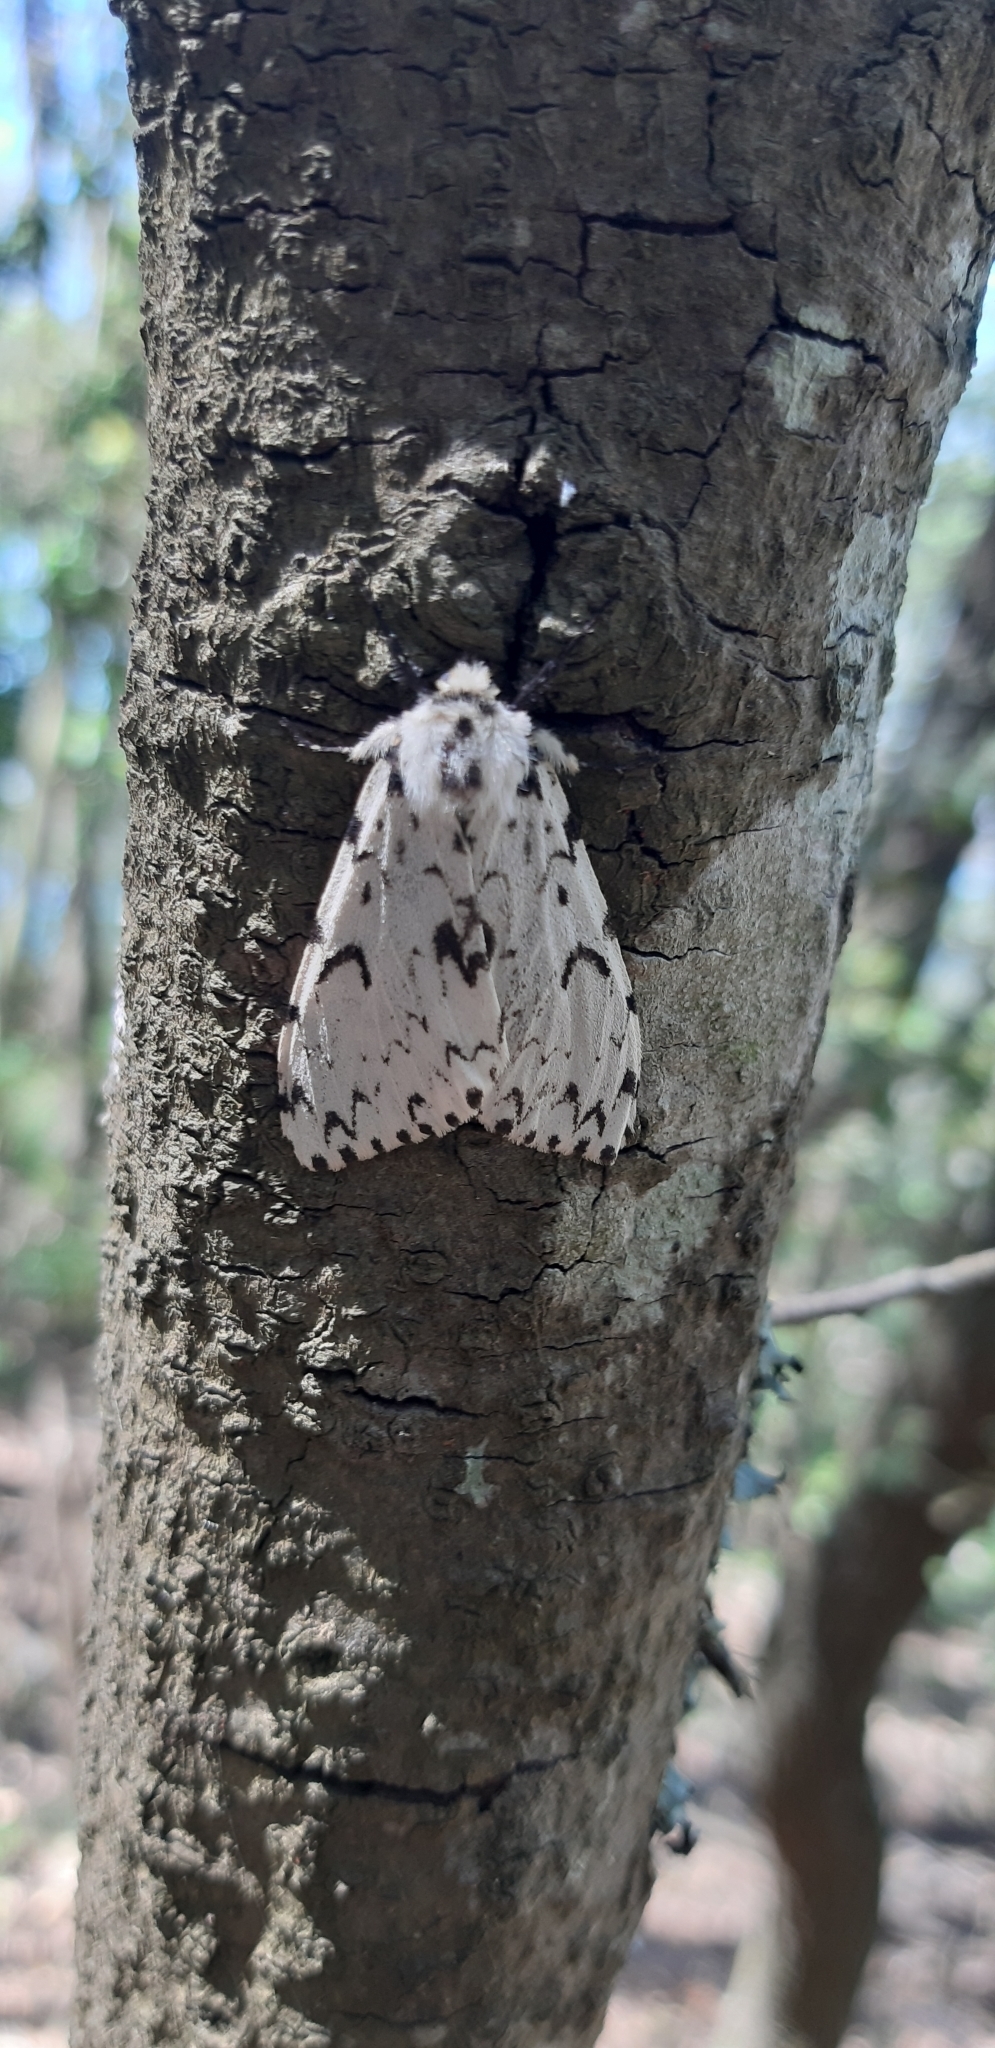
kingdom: Animalia
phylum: Arthropoda
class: Insecta
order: Lepidoptera
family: Erebidae
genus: Lymantria
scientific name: Lymantria monacha
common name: Black arches
